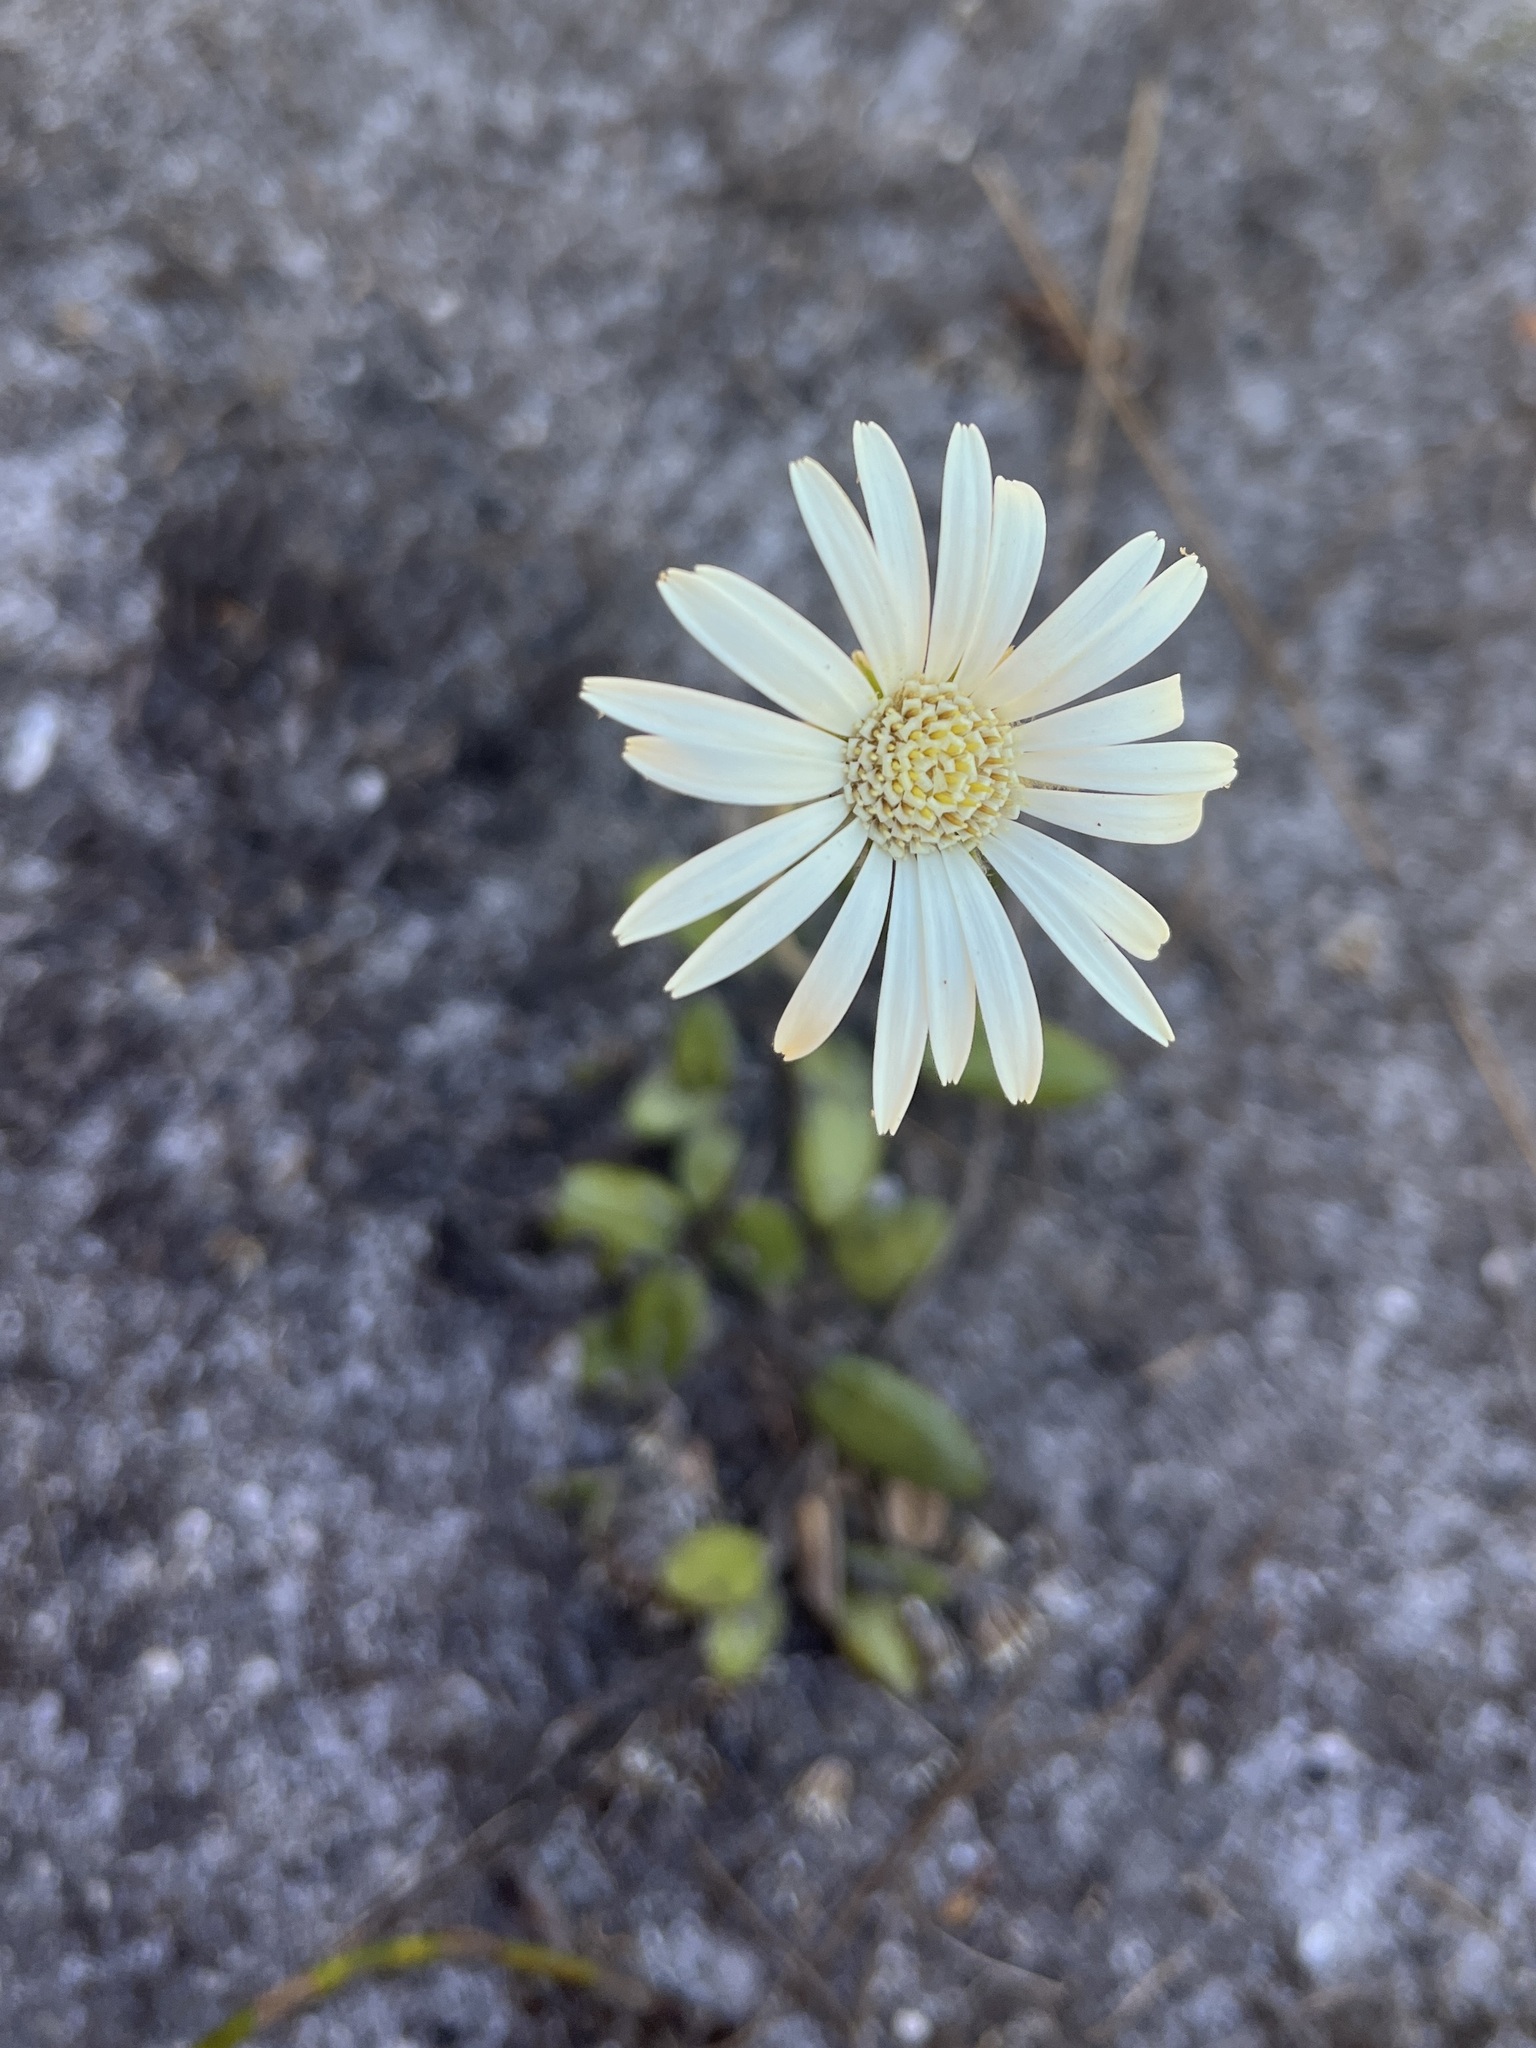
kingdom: Plantae
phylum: Tracheophyta
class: Magnoliopsida
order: Asterales
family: Asteraceae
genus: Gerbera
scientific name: Gerbera tomentosa
